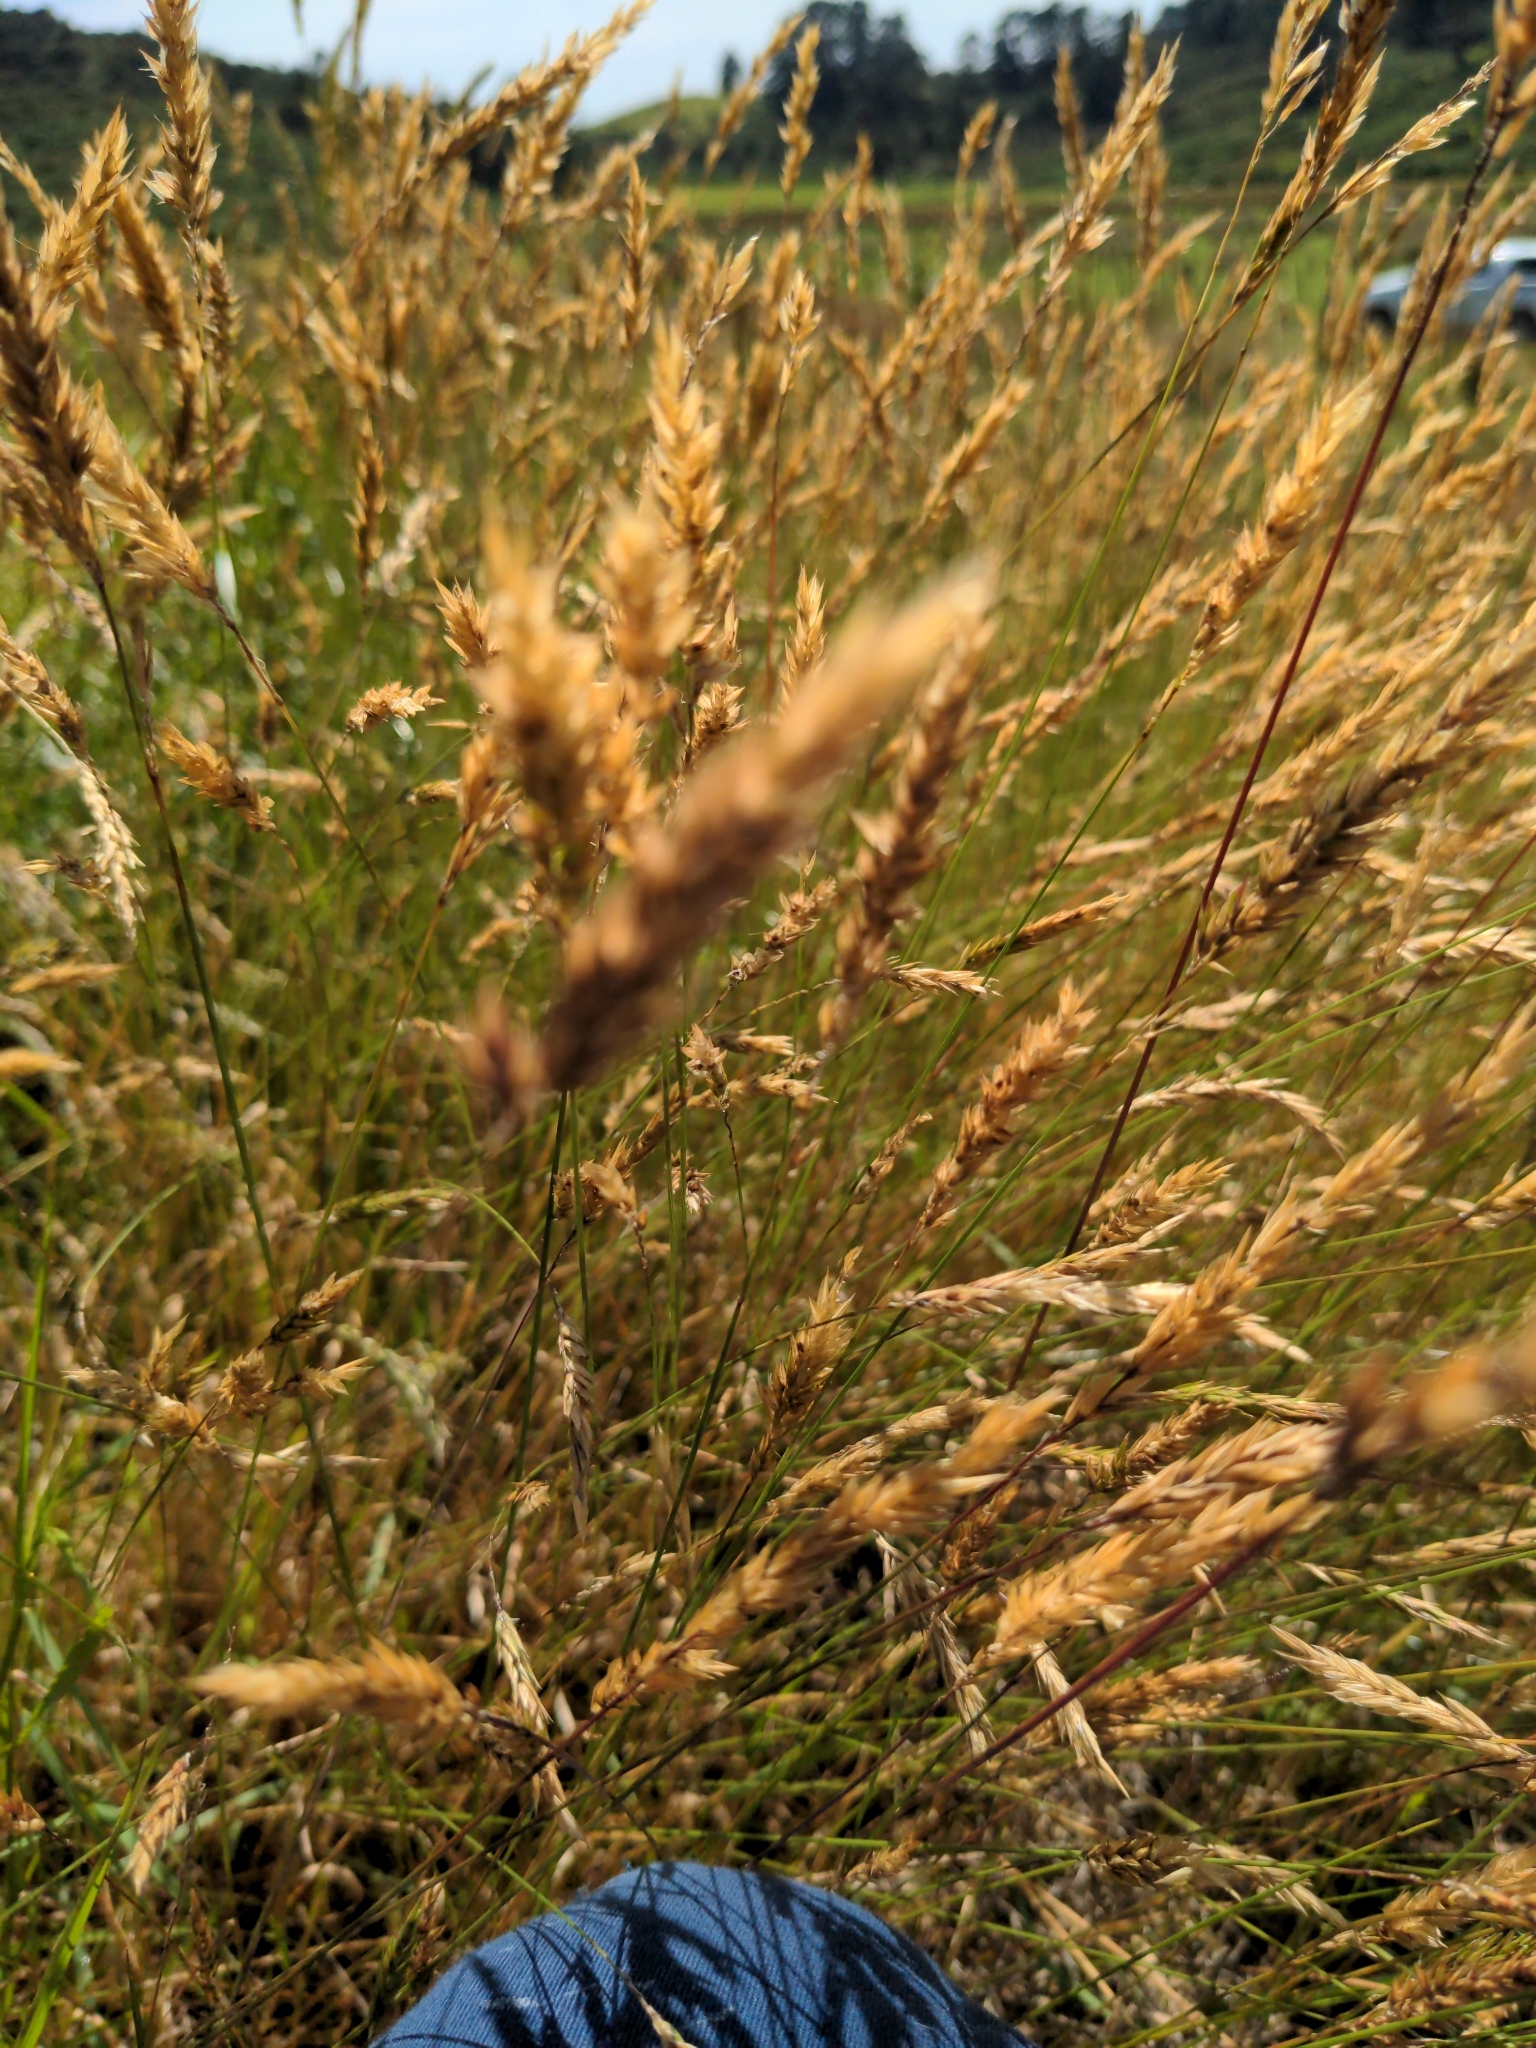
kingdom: Plantae
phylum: Tracheophyta
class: Liliopsida
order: Poales
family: Poaceae
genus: Anthoxanthum
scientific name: Anthoxanthum odoratum
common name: Sweet vernalgrass
